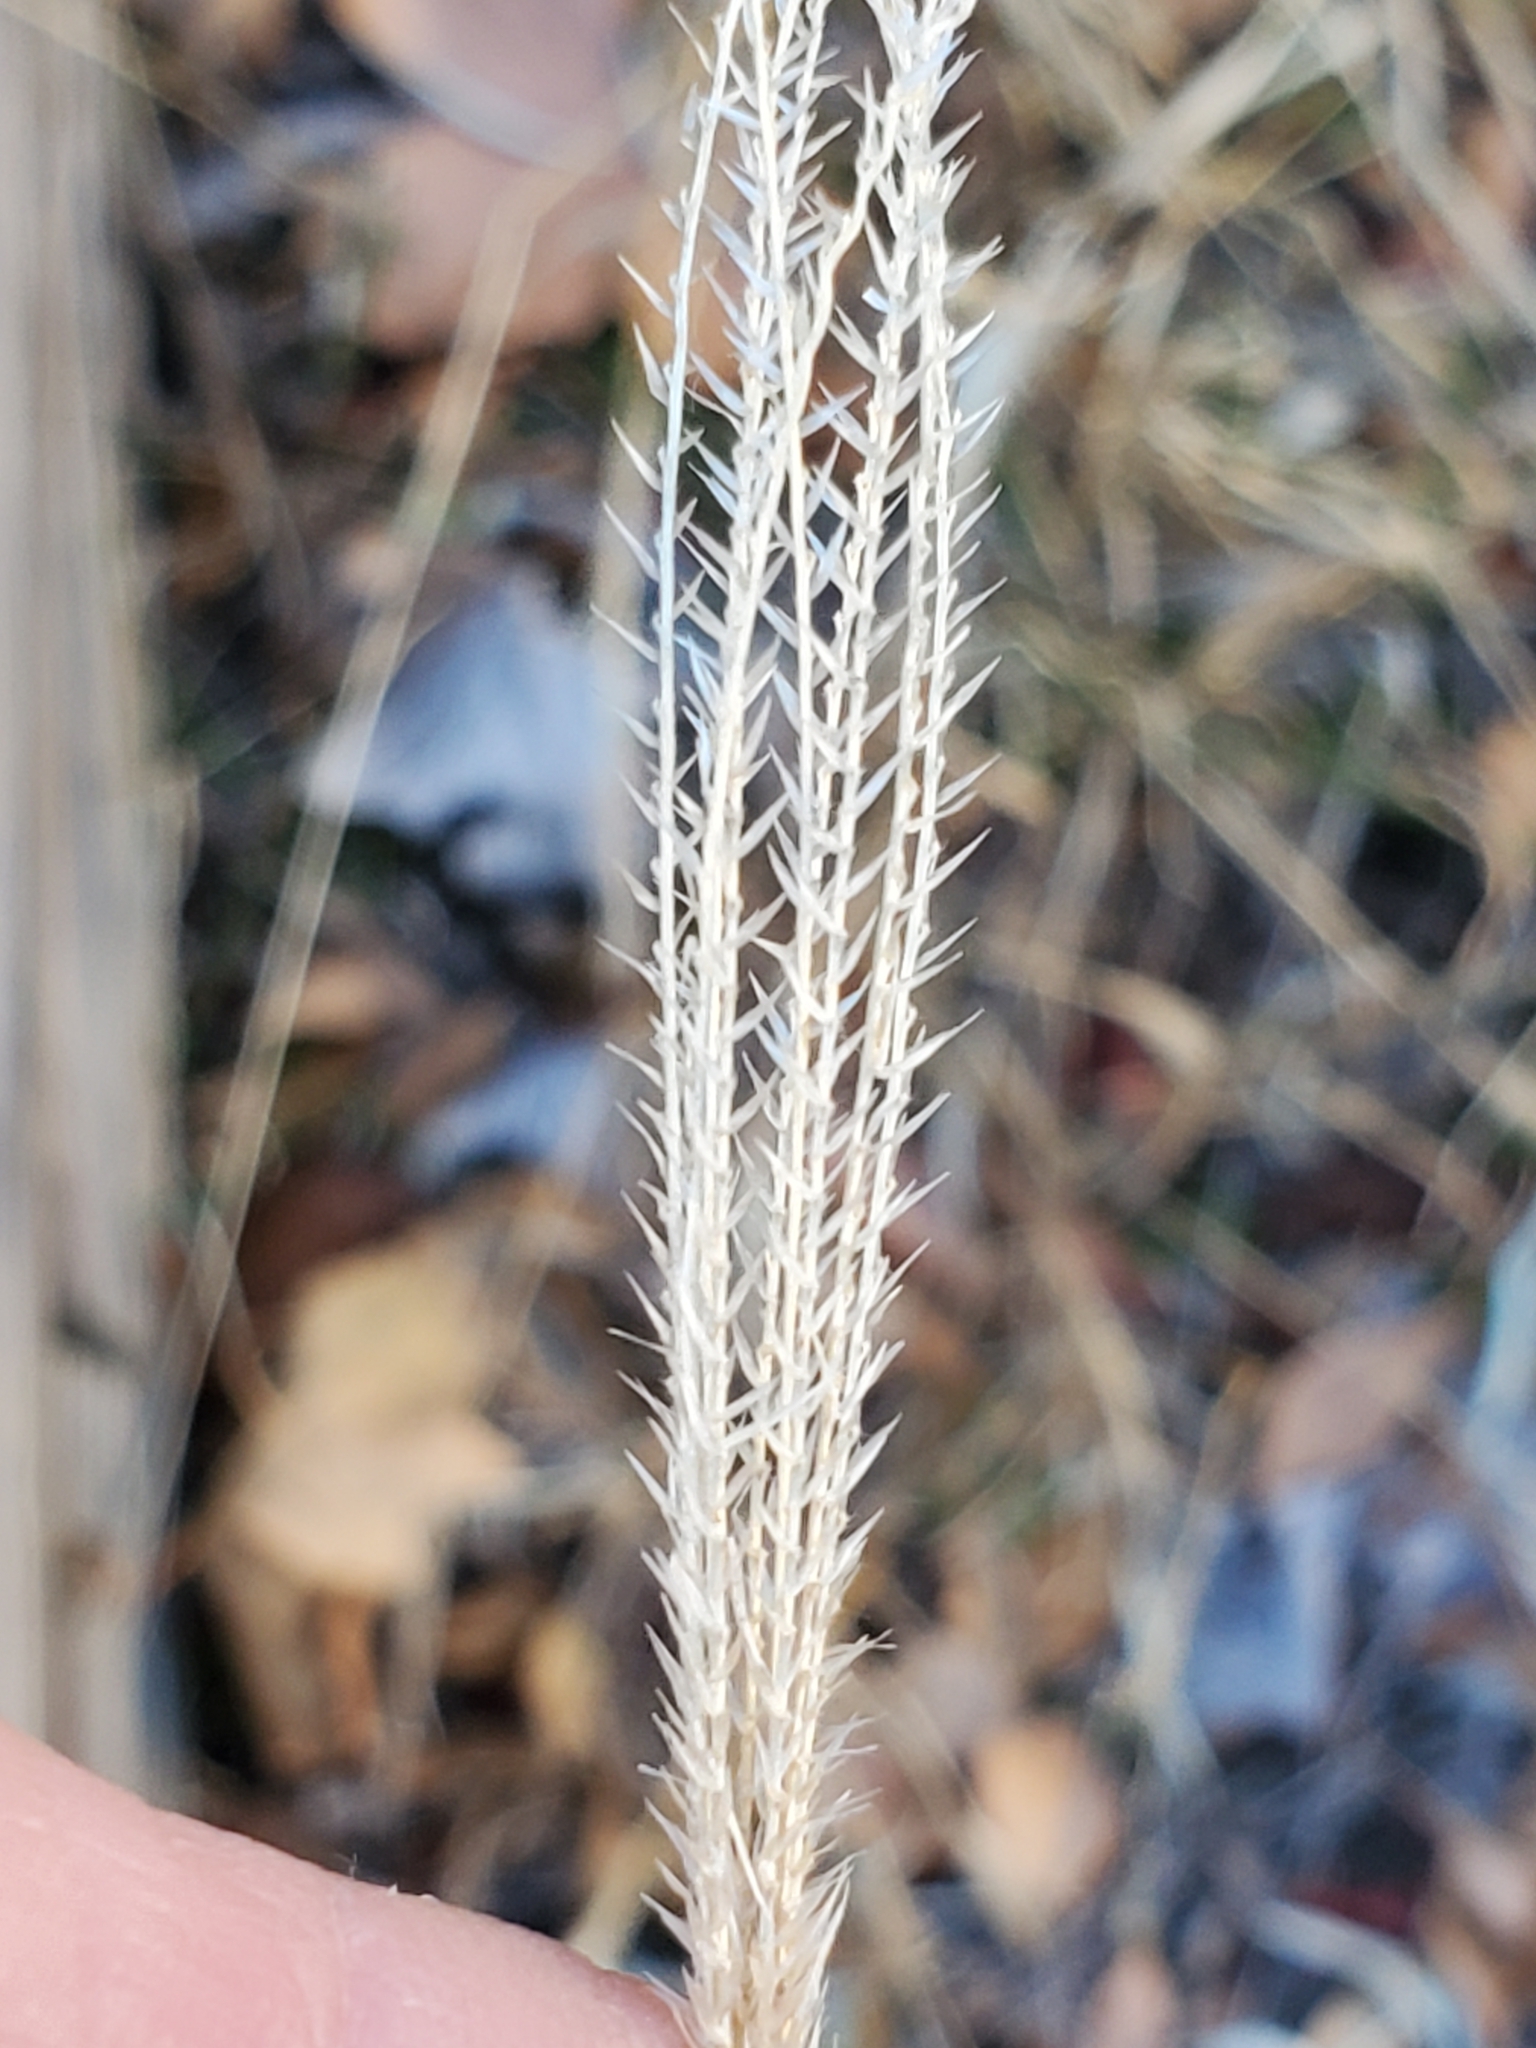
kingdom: Plantae
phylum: Tracheophyta
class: Liliopsida
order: Poales
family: Poaceae
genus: Chloris
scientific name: Chloris virgata
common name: Feathery rhodes-grass
